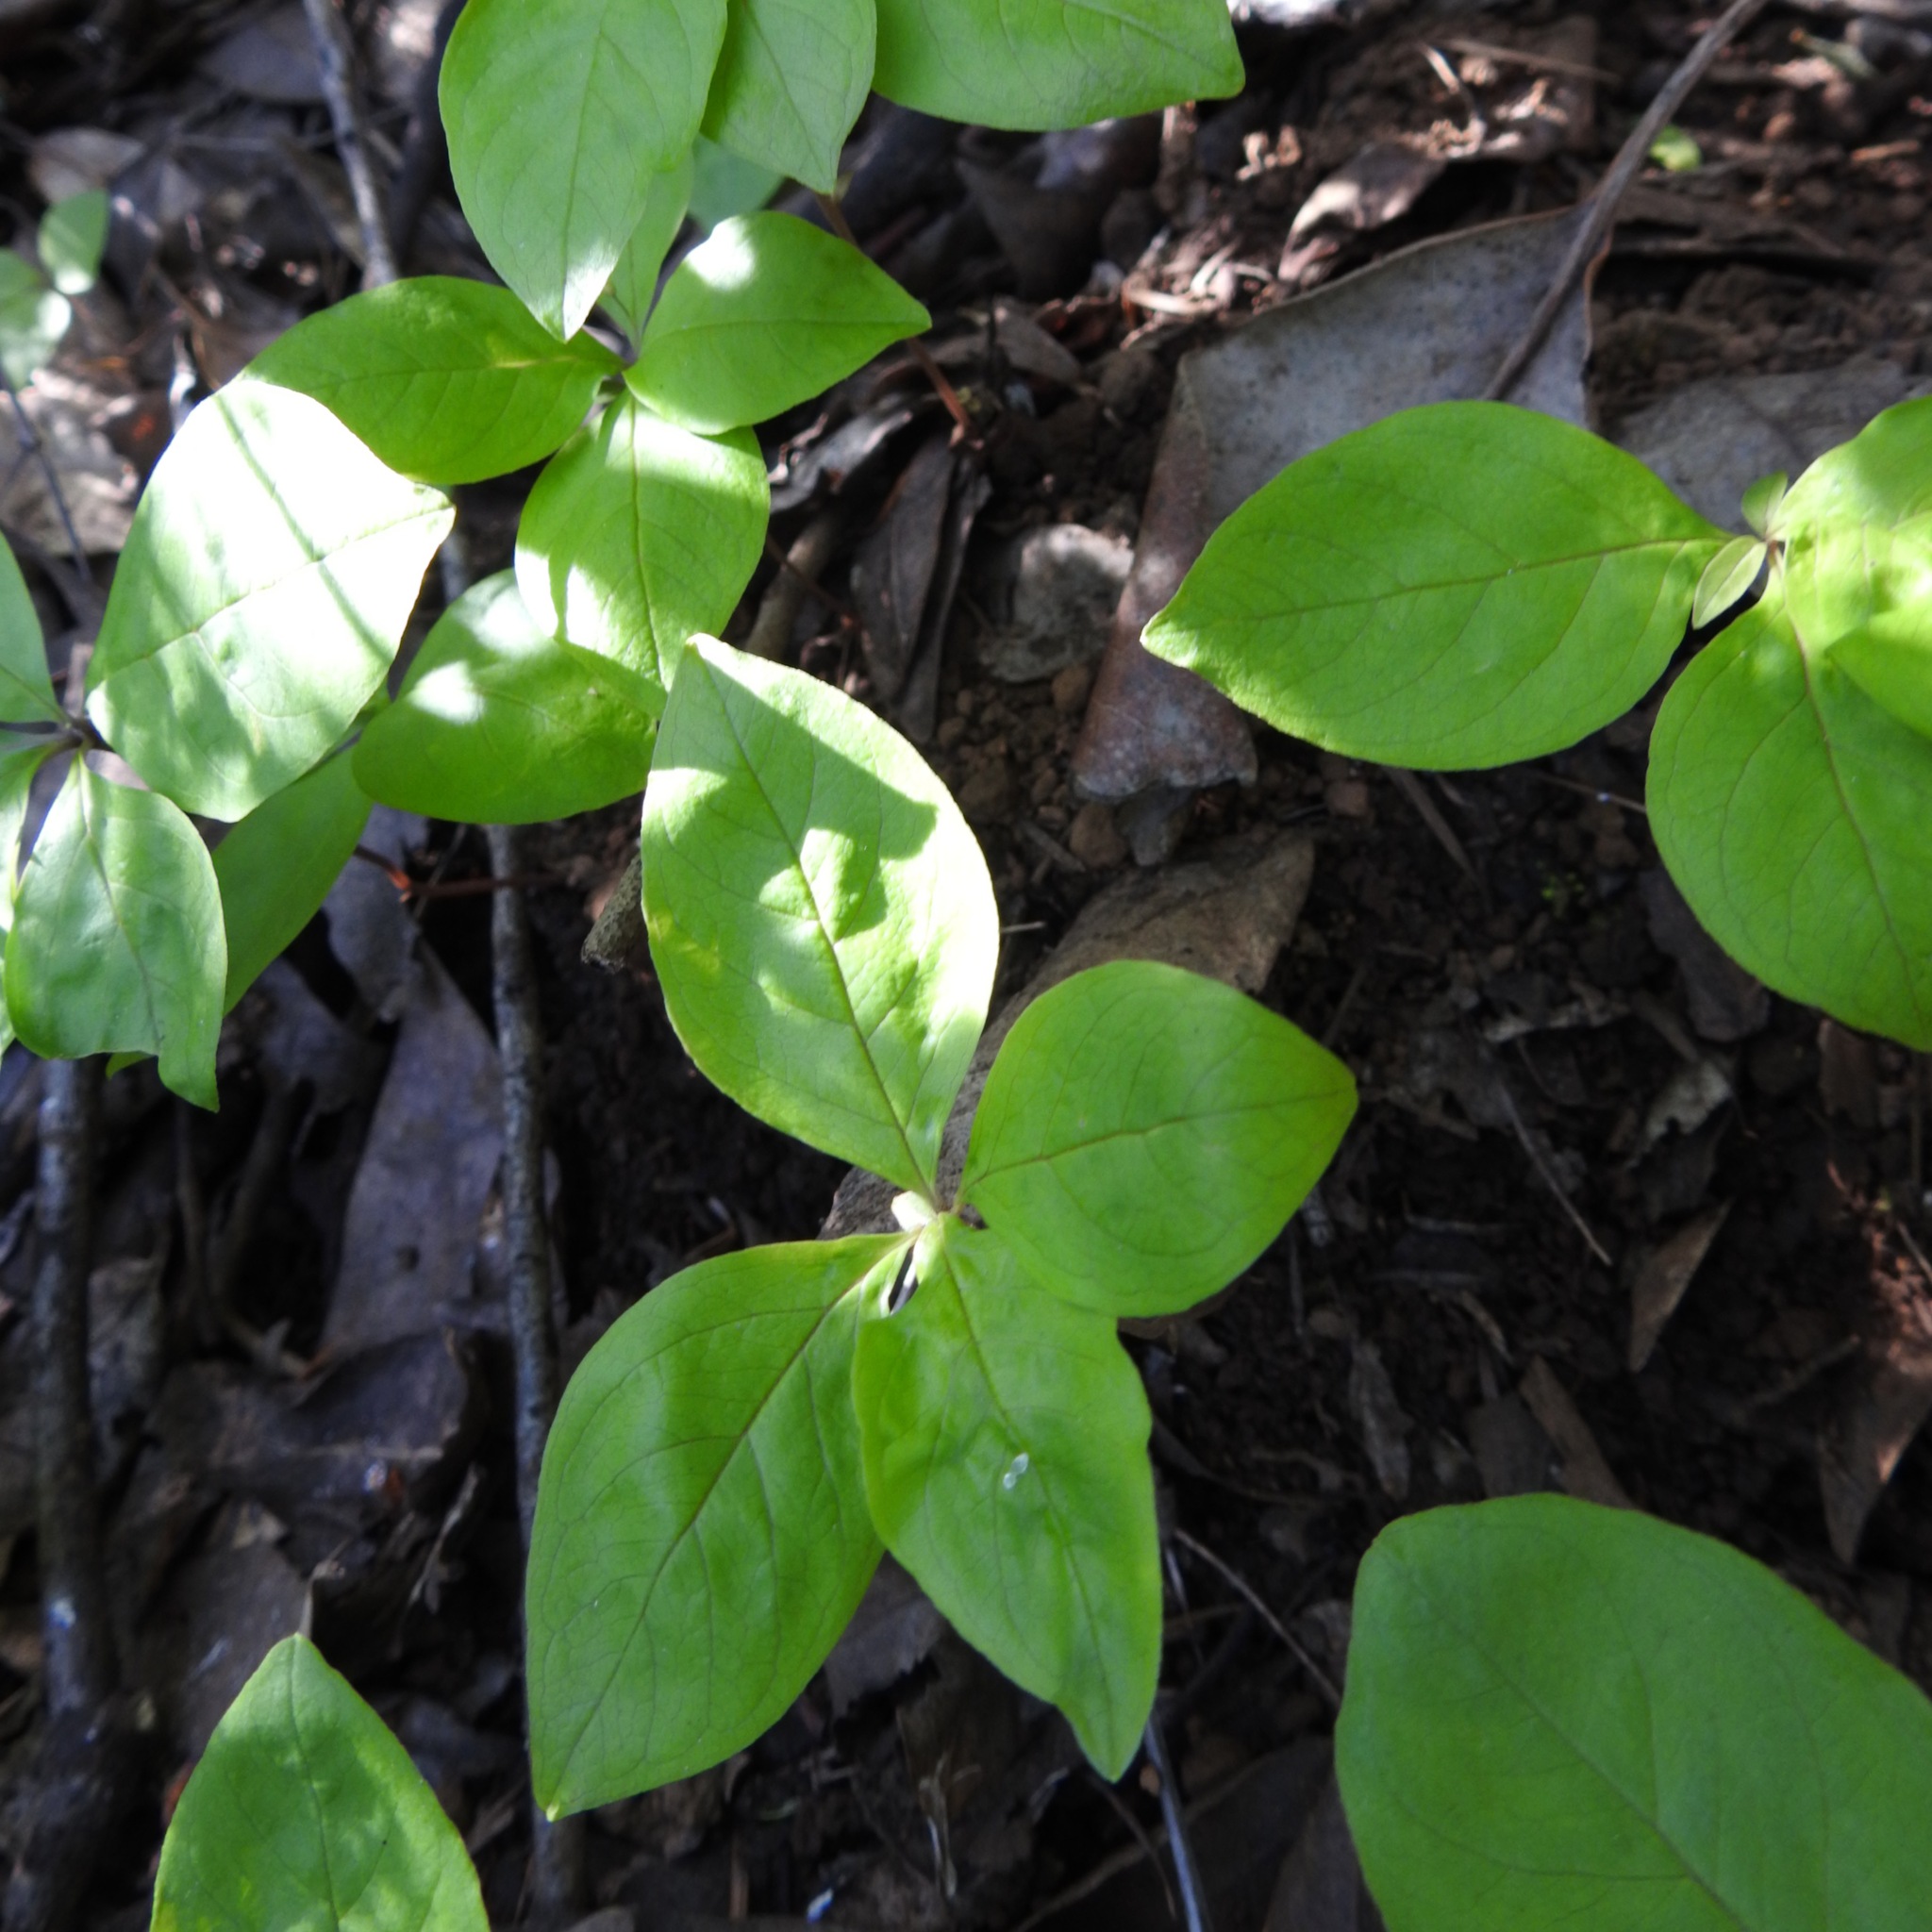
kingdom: Plantae
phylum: Tracheophyta
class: Magnoliopsida
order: Ericales
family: Primulaceae
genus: Lysimachia
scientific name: Lysimachia latifolia
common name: Pacific starflower
